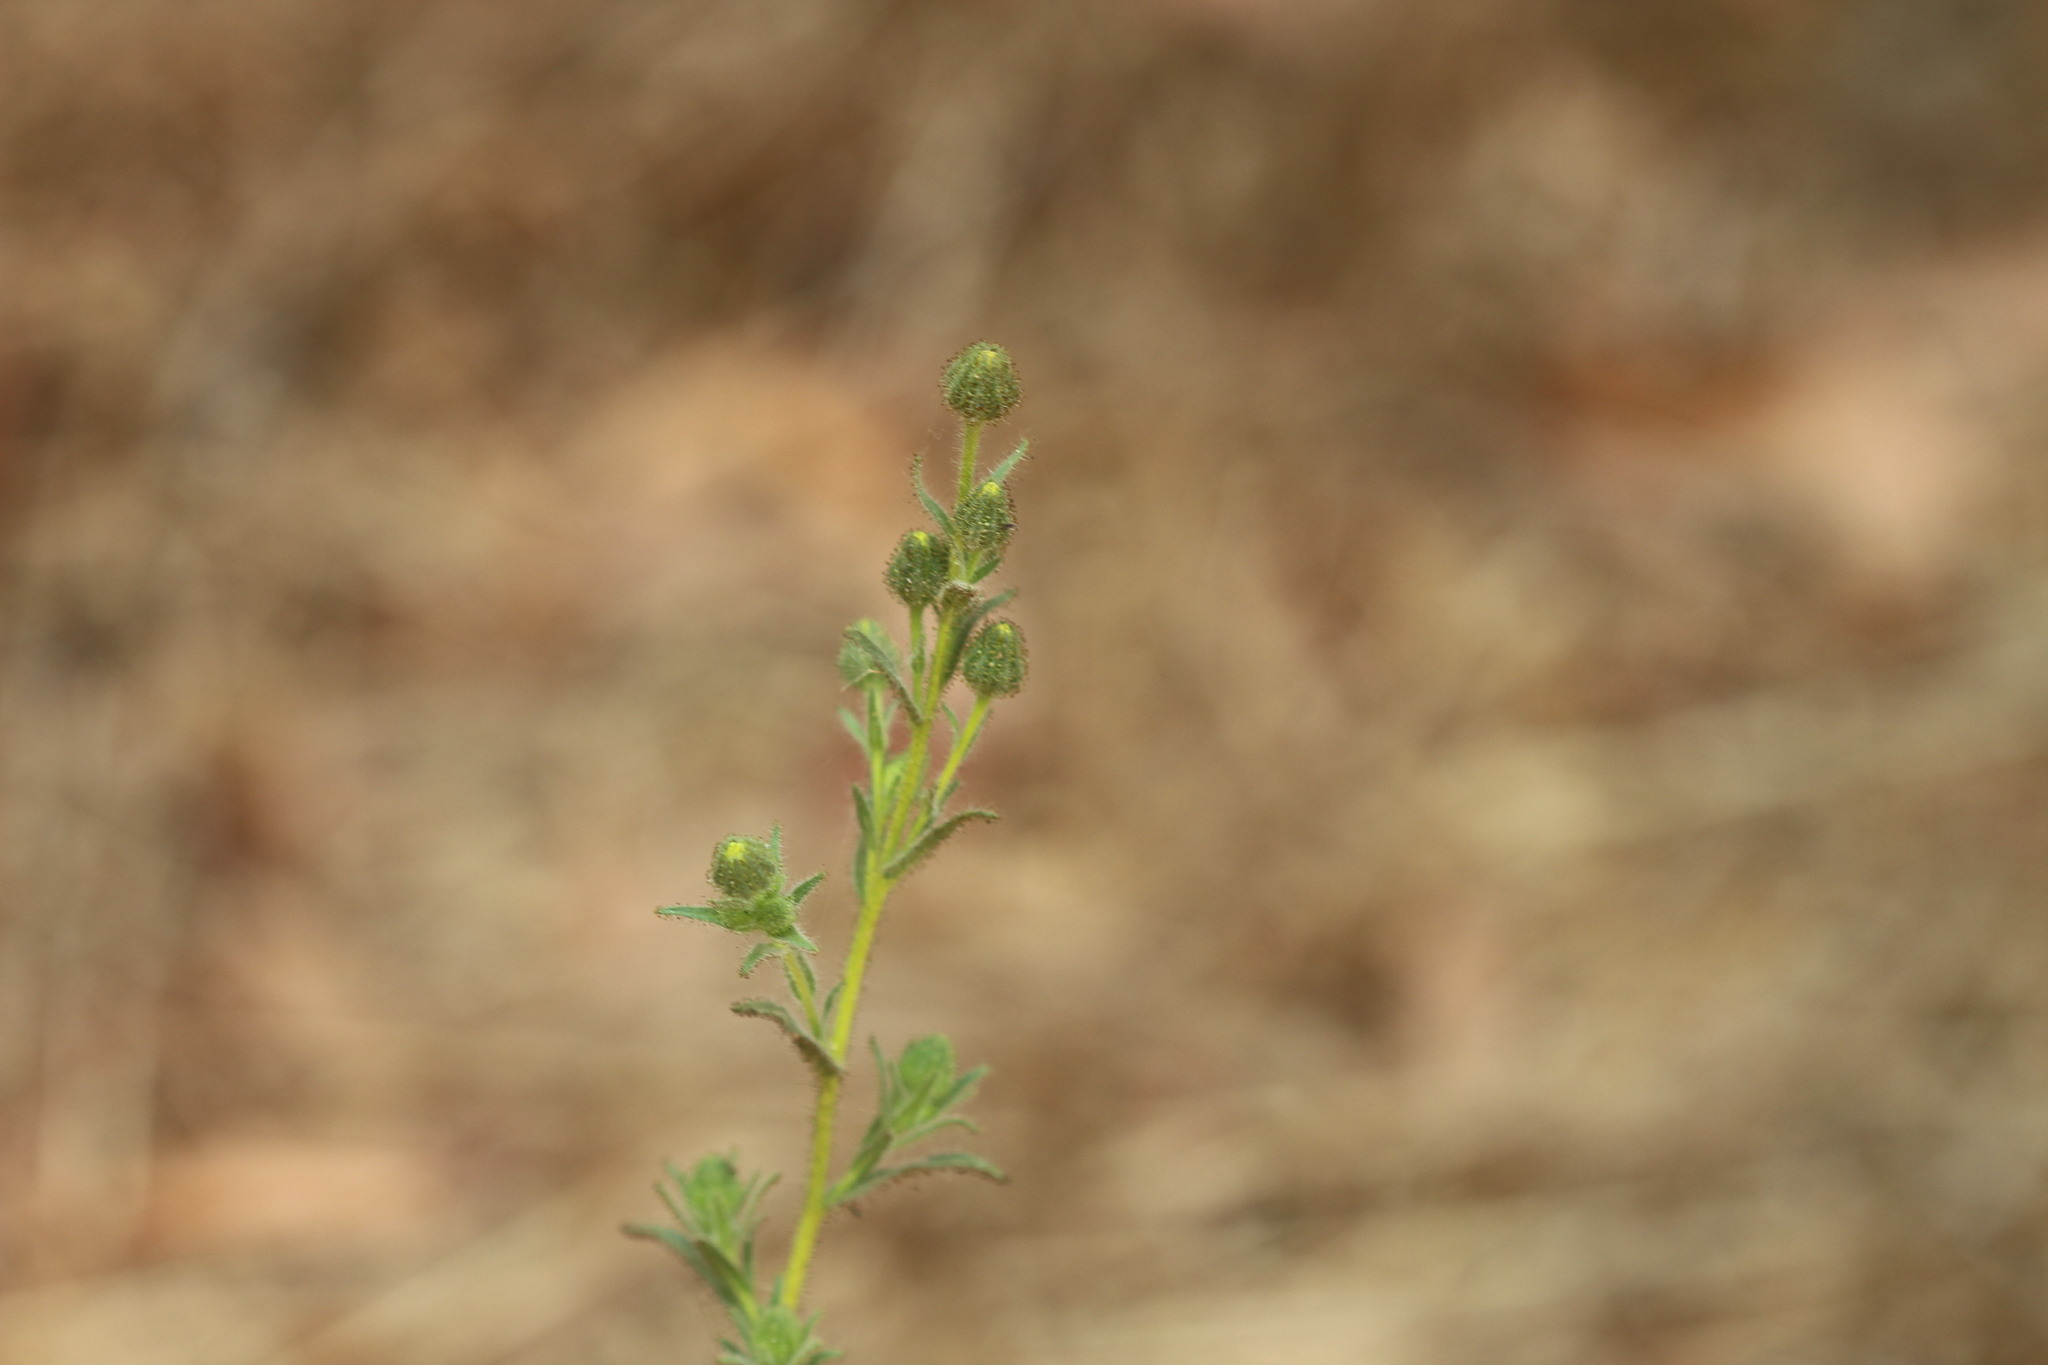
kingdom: Plantae
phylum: Tracheophyta
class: Magnoliopsida
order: Asterales
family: Asteraceae
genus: Madia
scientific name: Madia gracilis
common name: Grassy tarweed
